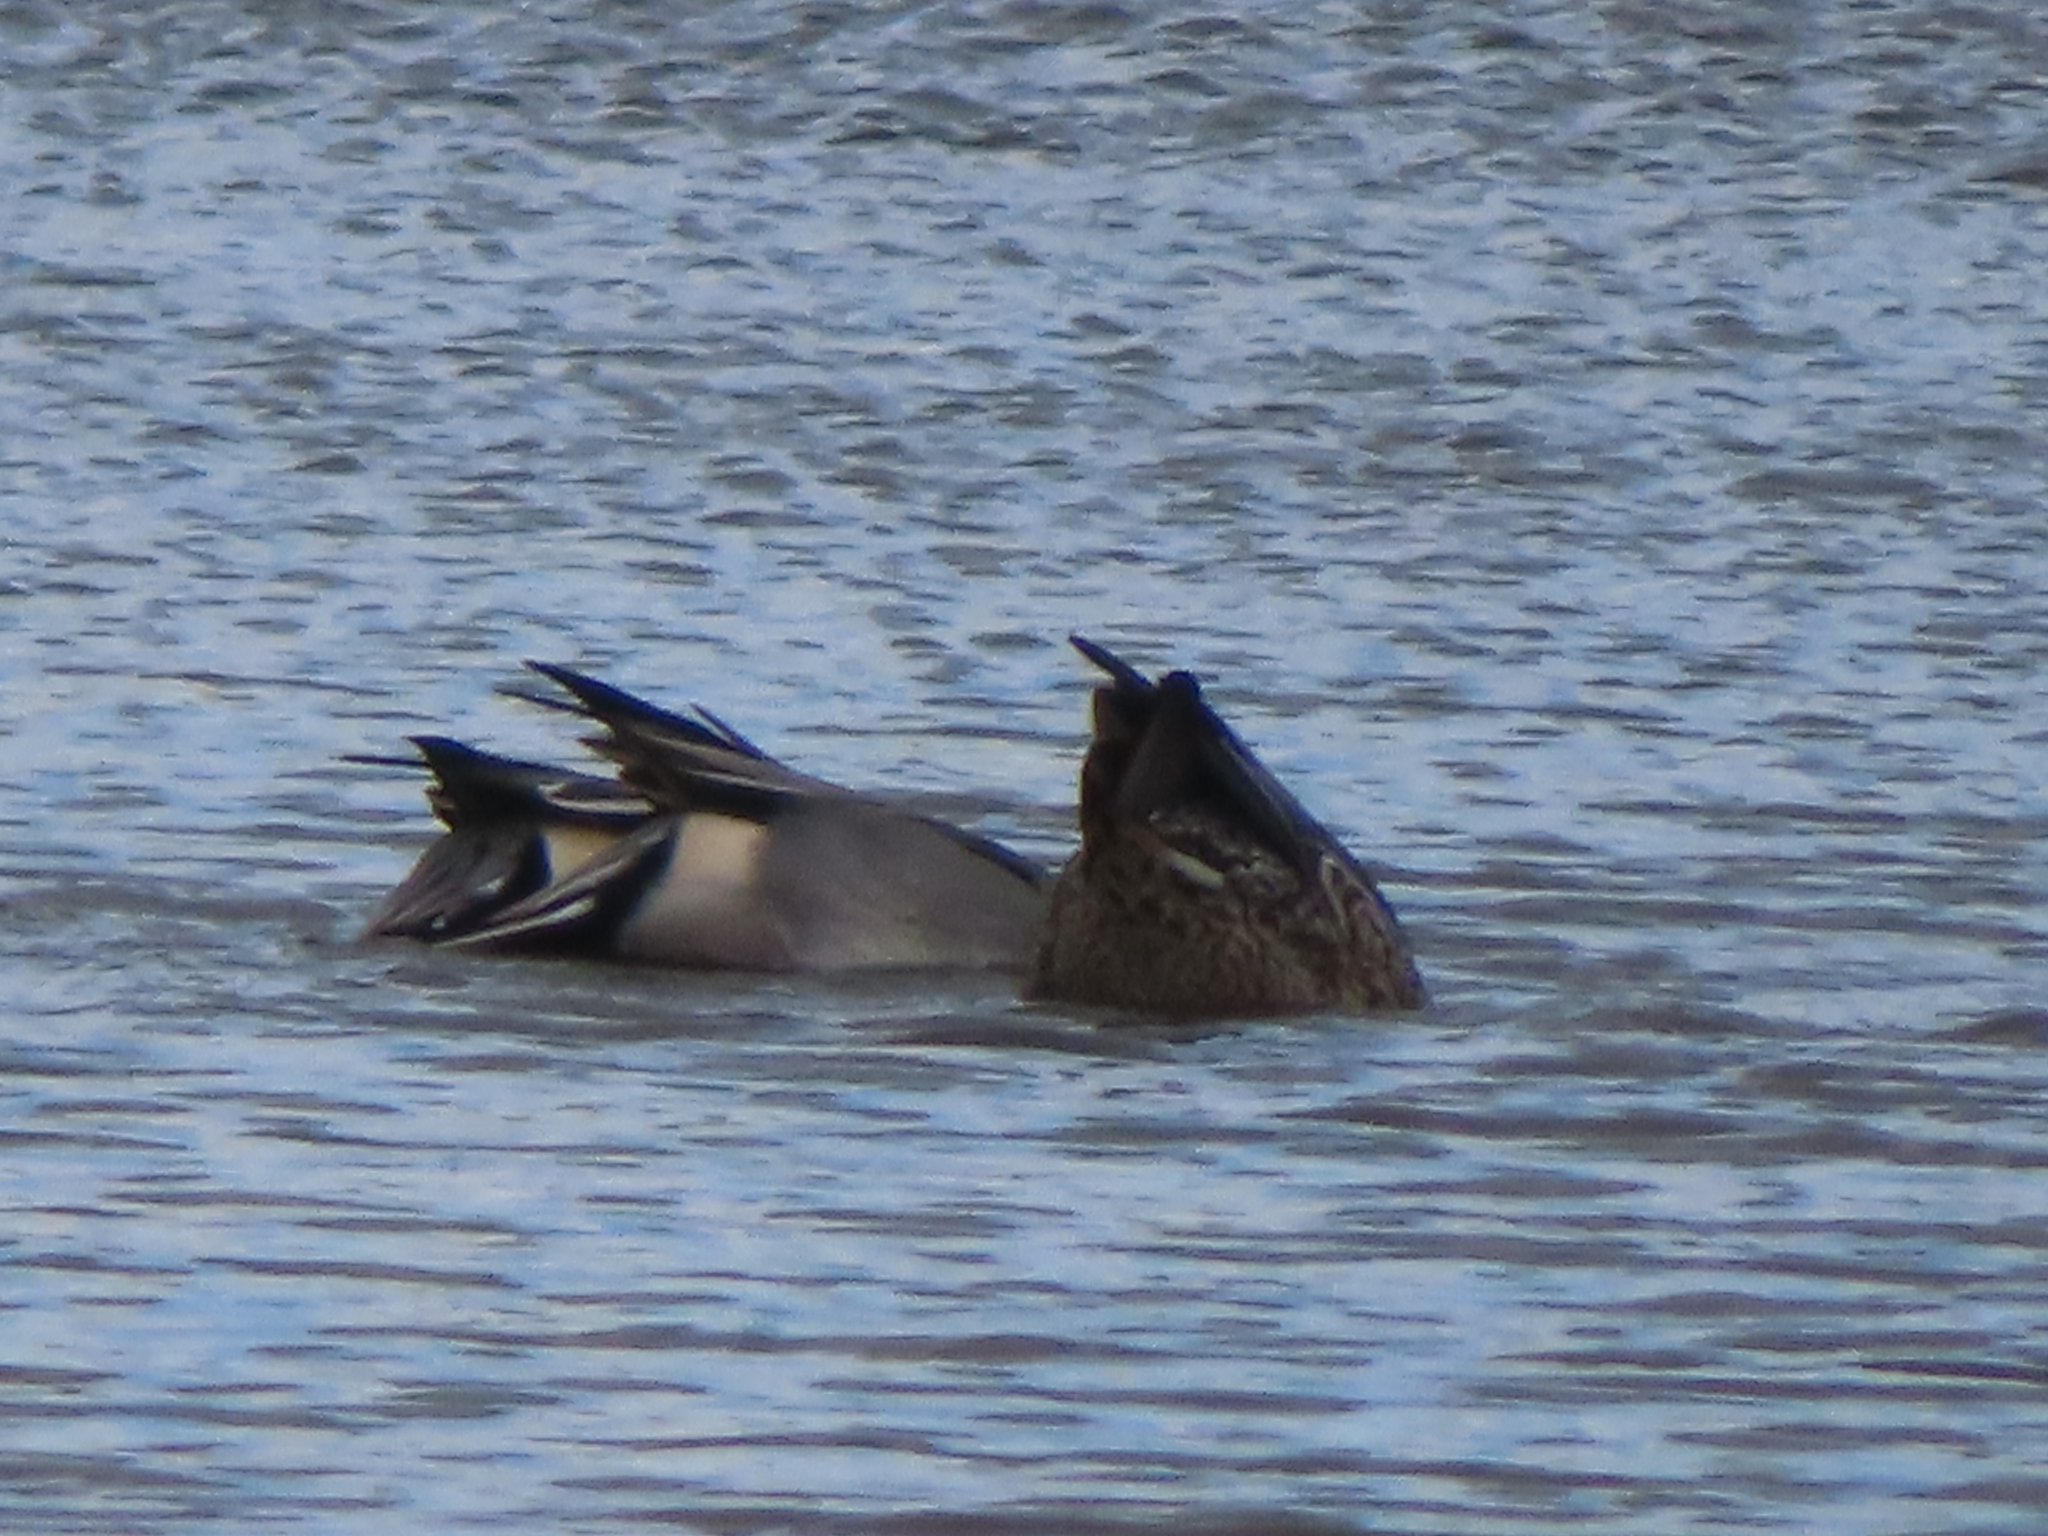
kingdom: Animalia
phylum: Chordata
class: Aves
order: Anseriformes
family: Anatidae
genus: Anas
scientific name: Anas acuta
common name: Northern pintail
